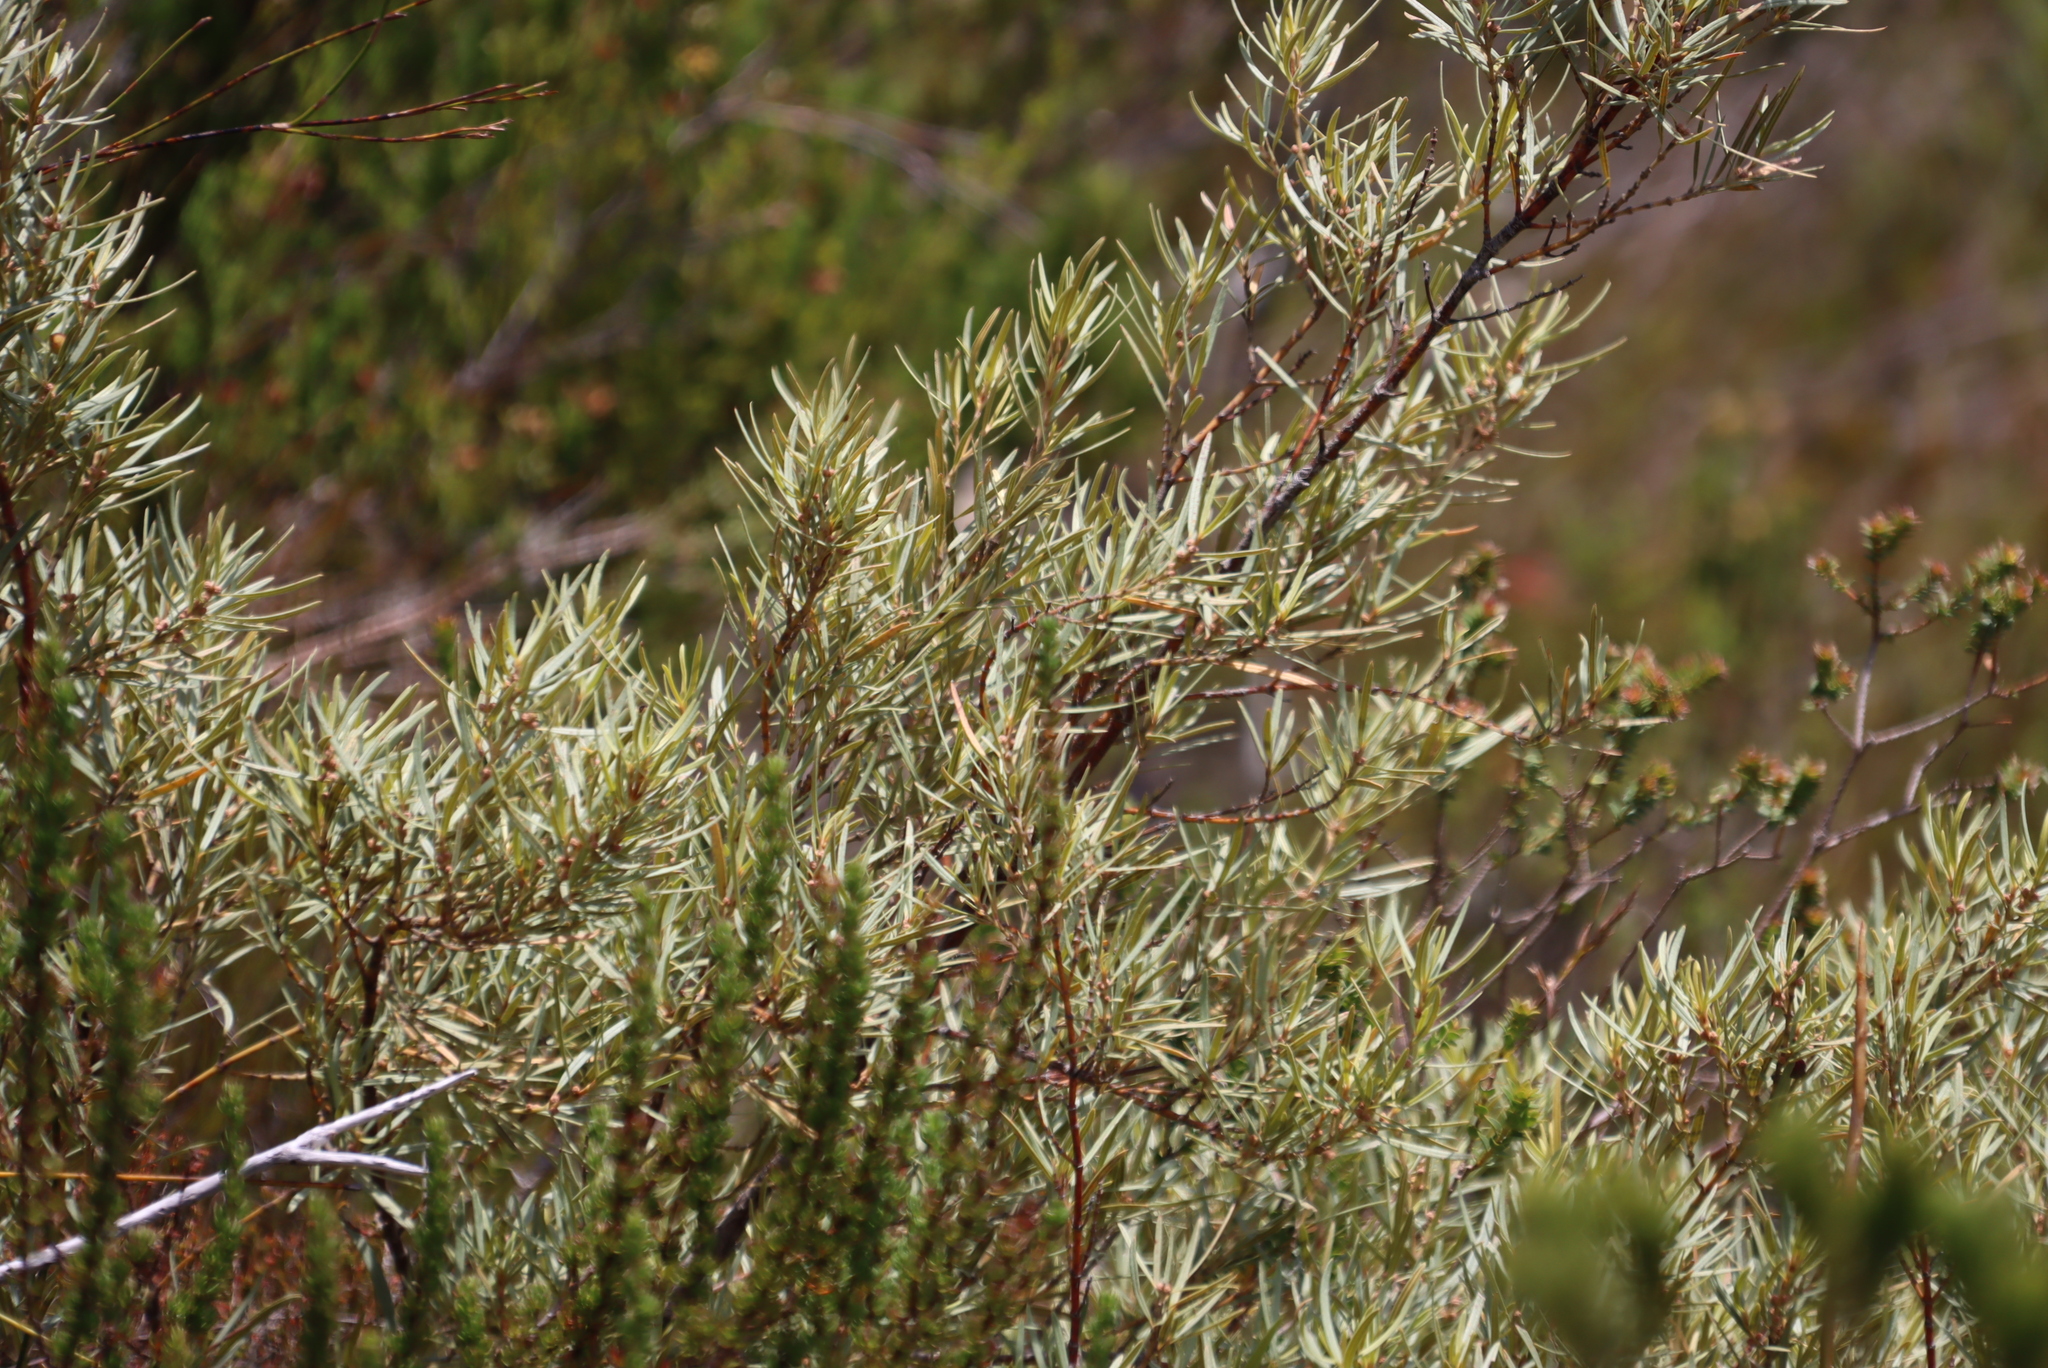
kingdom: Plantae
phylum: Tracheophyta
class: Magnoliopsida
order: Cornales
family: Grubbiaceae
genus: Grubbia
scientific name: Grubbia rosmarinifolia
